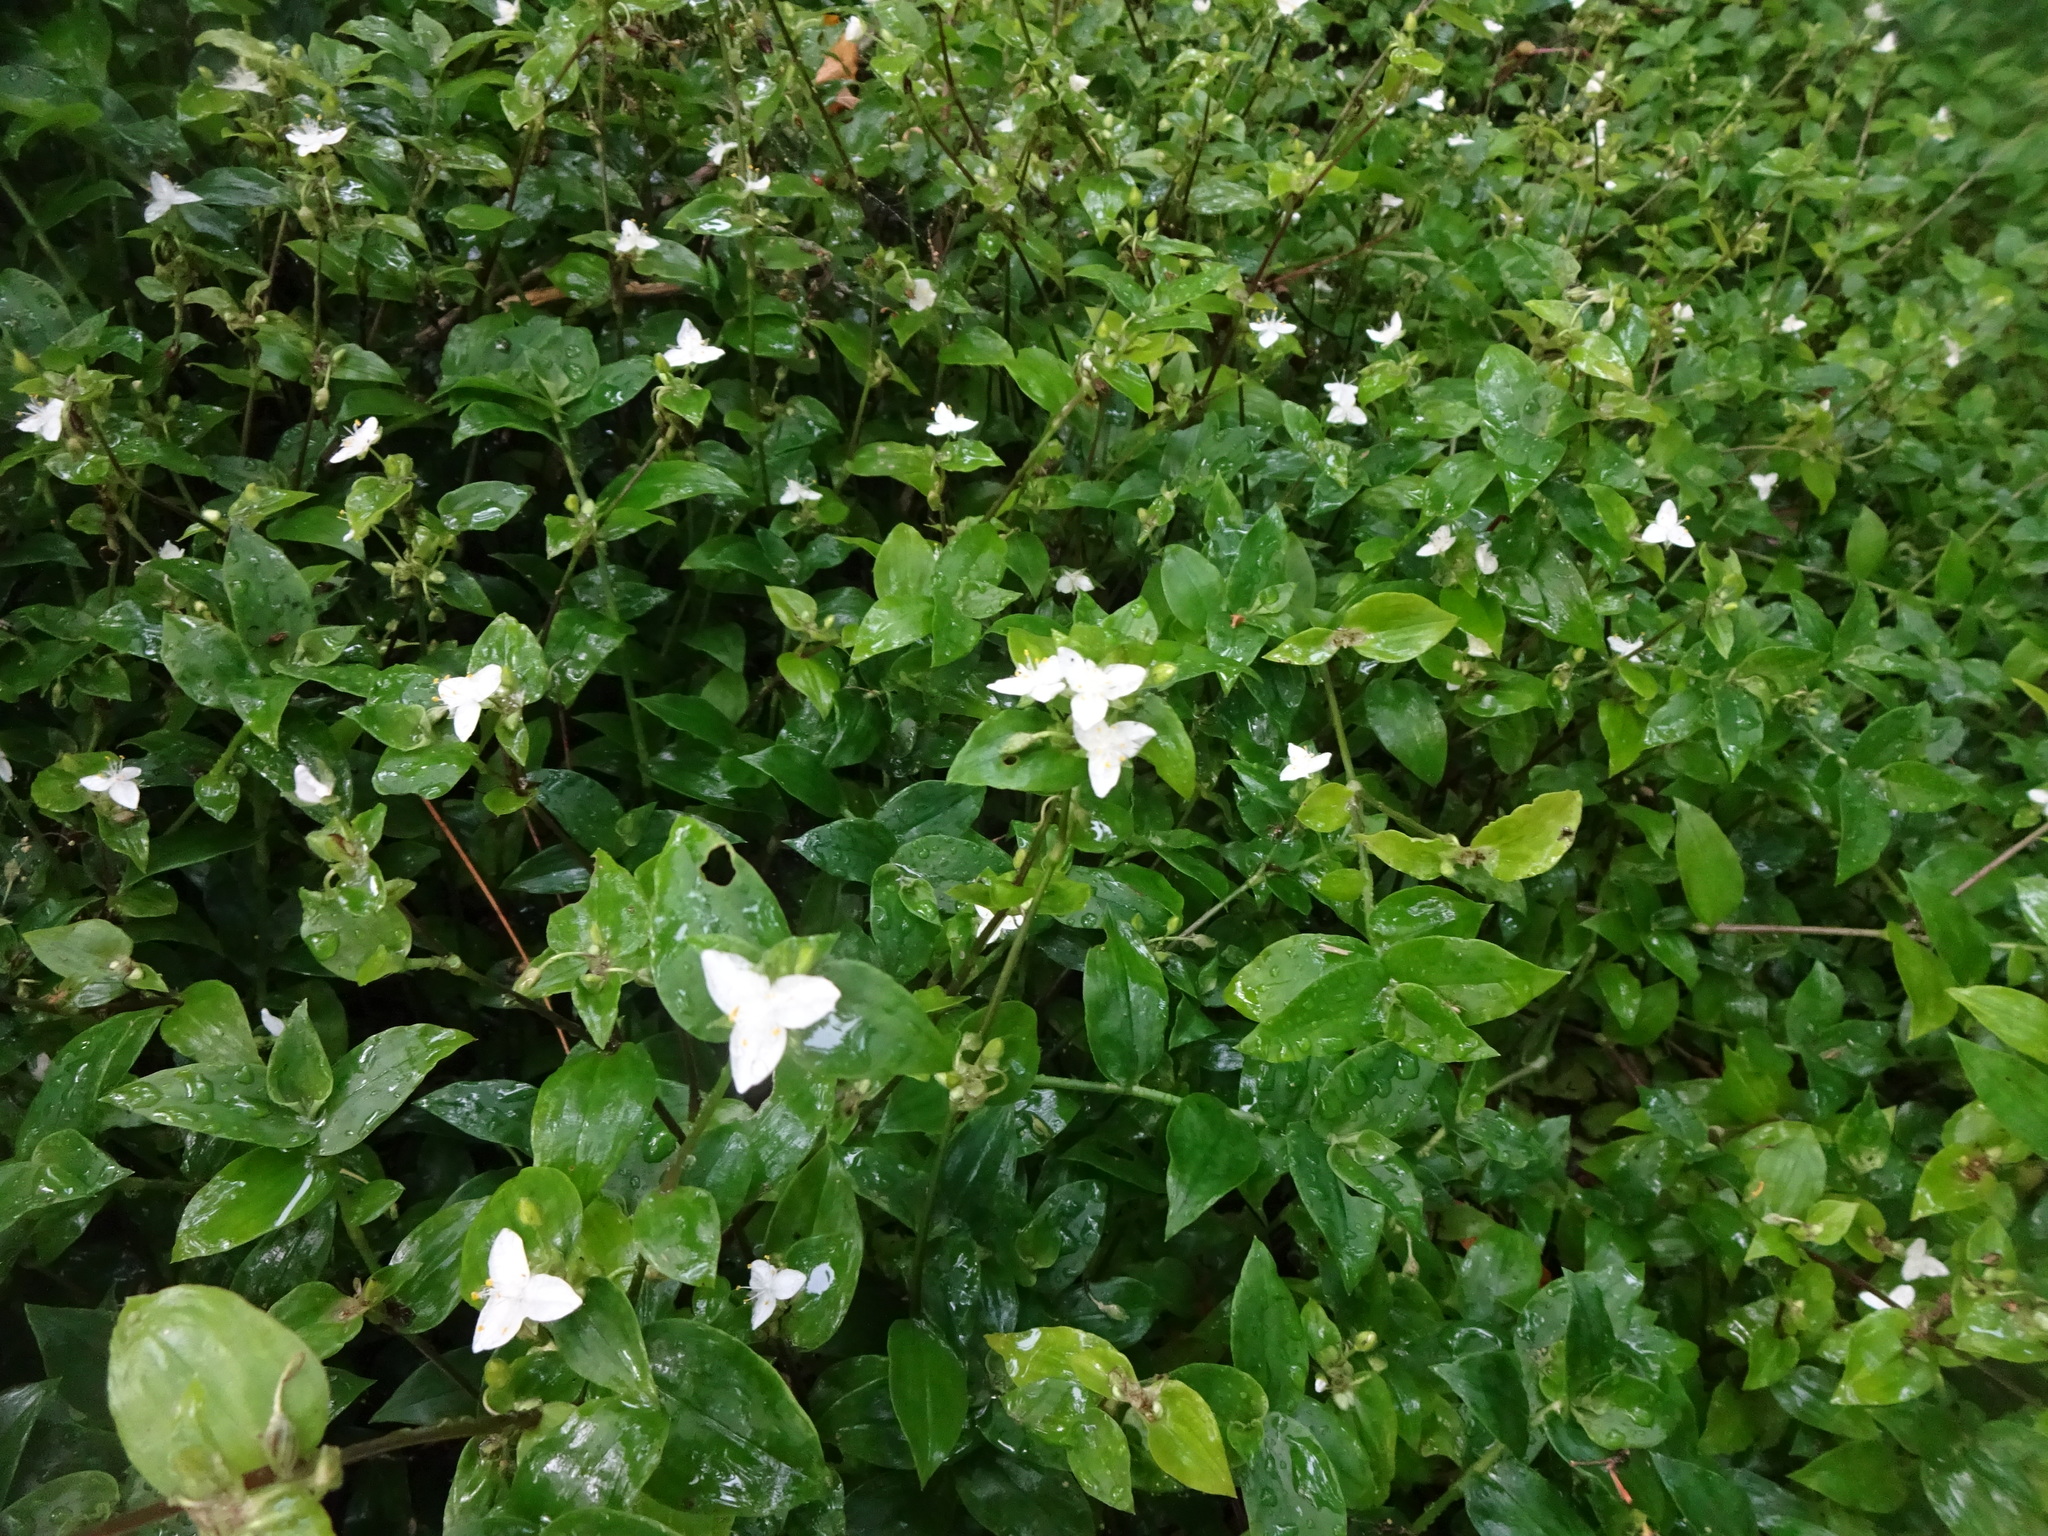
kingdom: Plantae
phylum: Tracheophyta
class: Liliopsida
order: Commelinales
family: Commelinaceae
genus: Tradescantia
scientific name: Tradescantia fluminensis
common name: Wandering-jew
